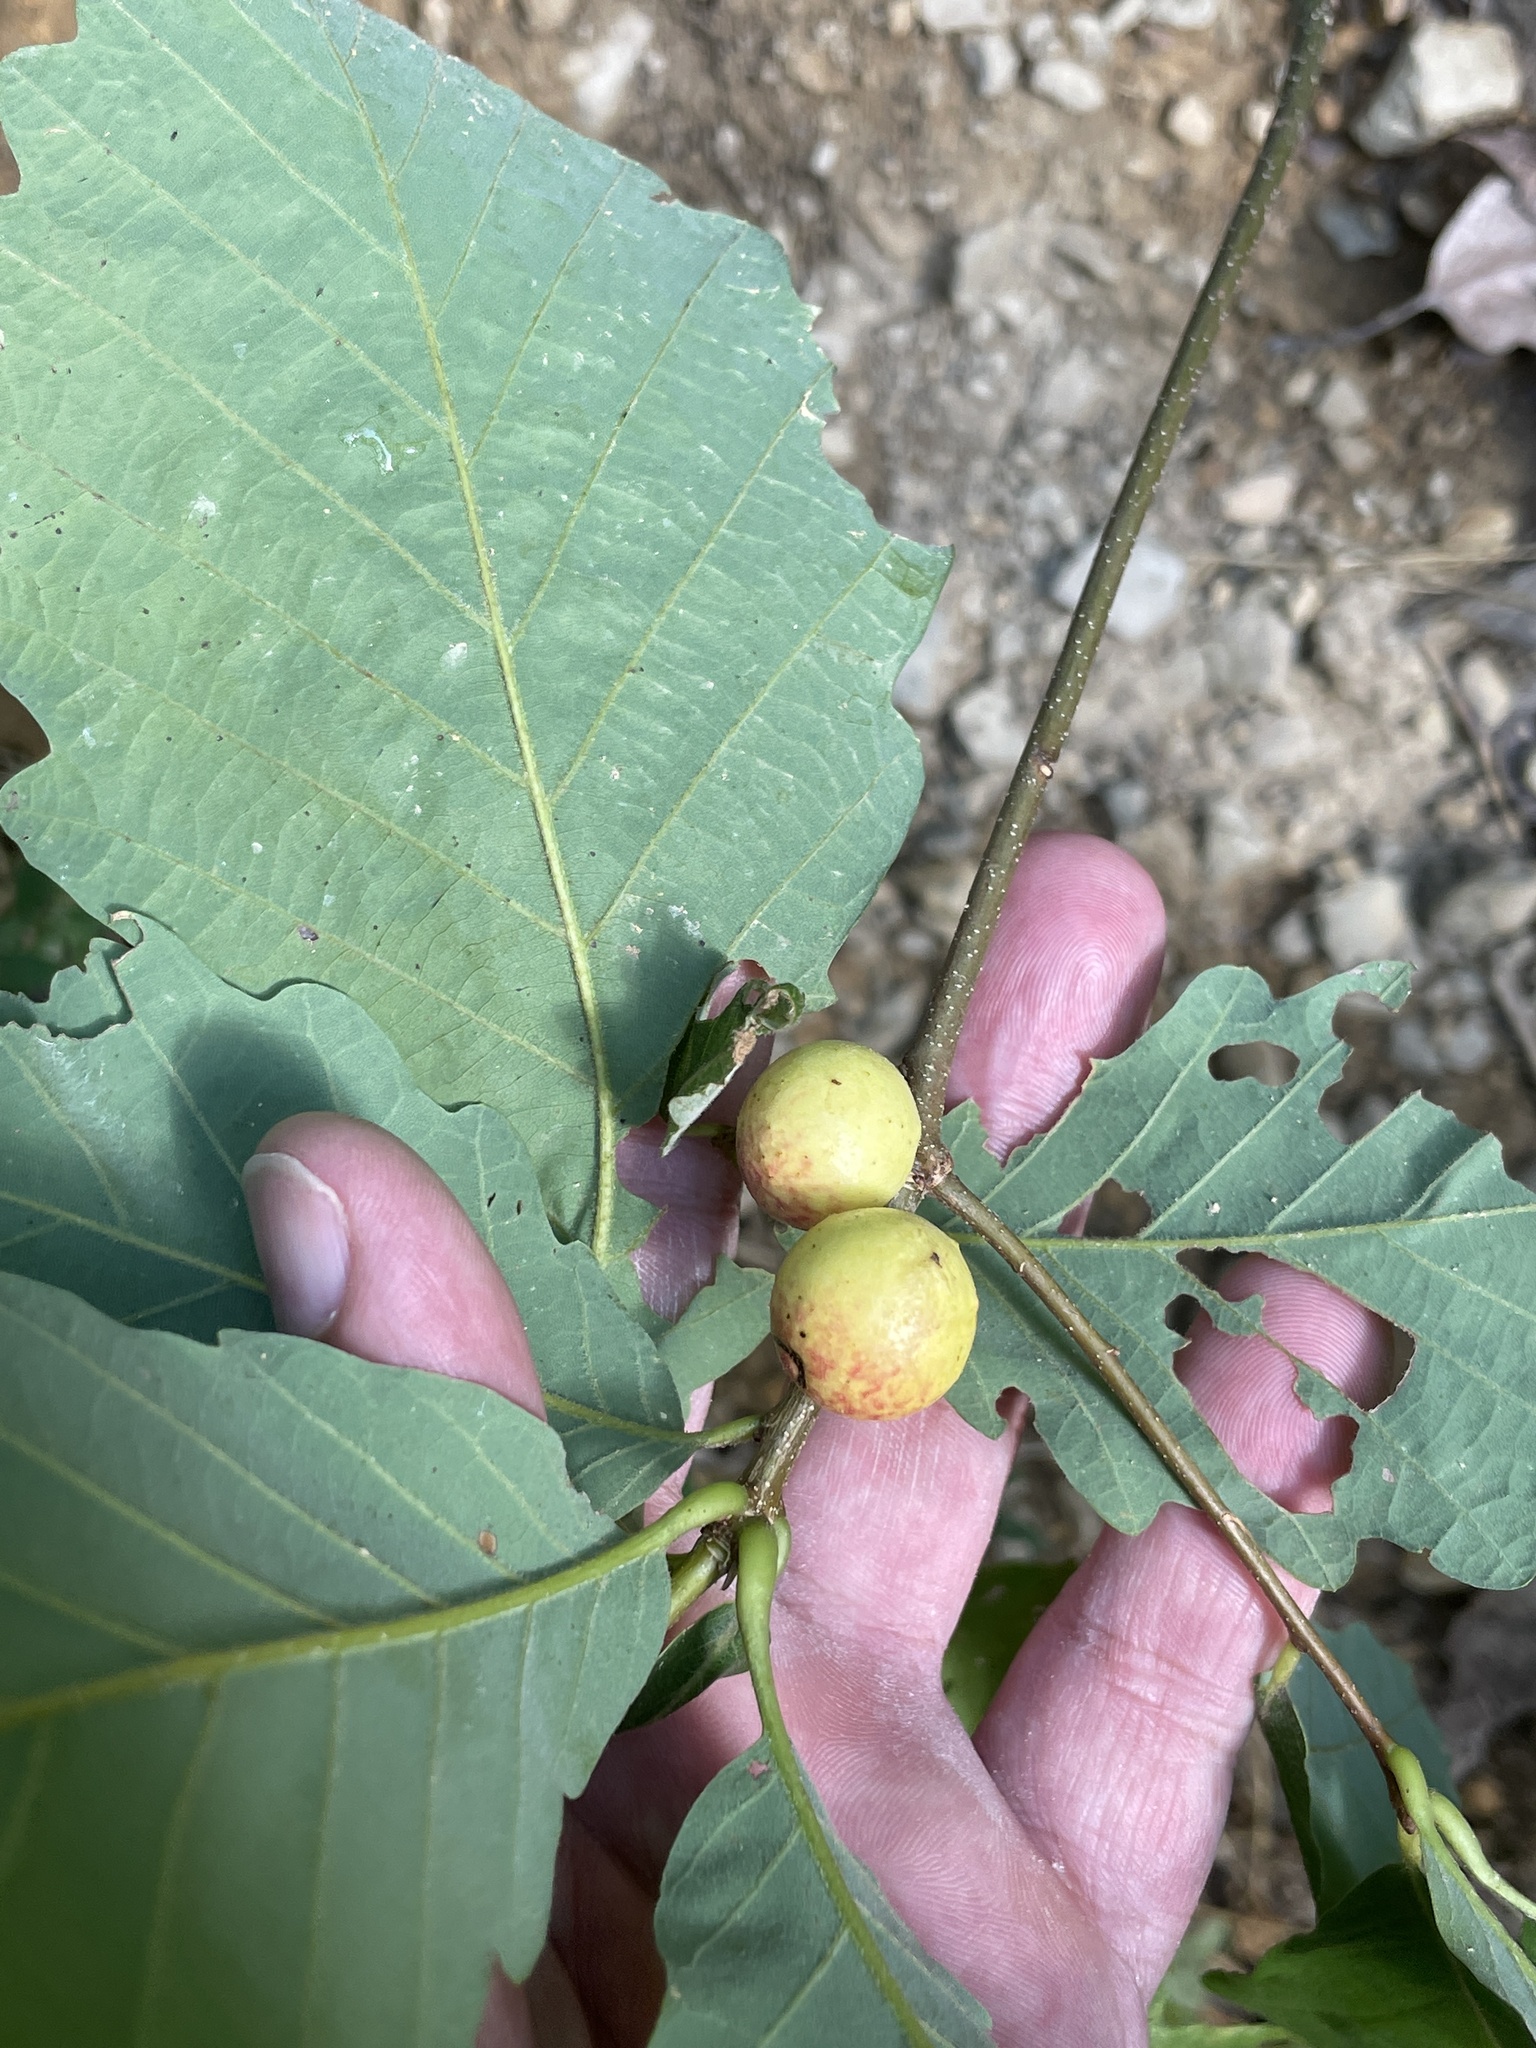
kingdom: Animalia
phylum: Arthropoda
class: Insecta
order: Hymenoptera
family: Cynipidae
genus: Disholcaspis
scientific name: Disholcaspis quercusglobulus
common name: Round bullet gall wasp
